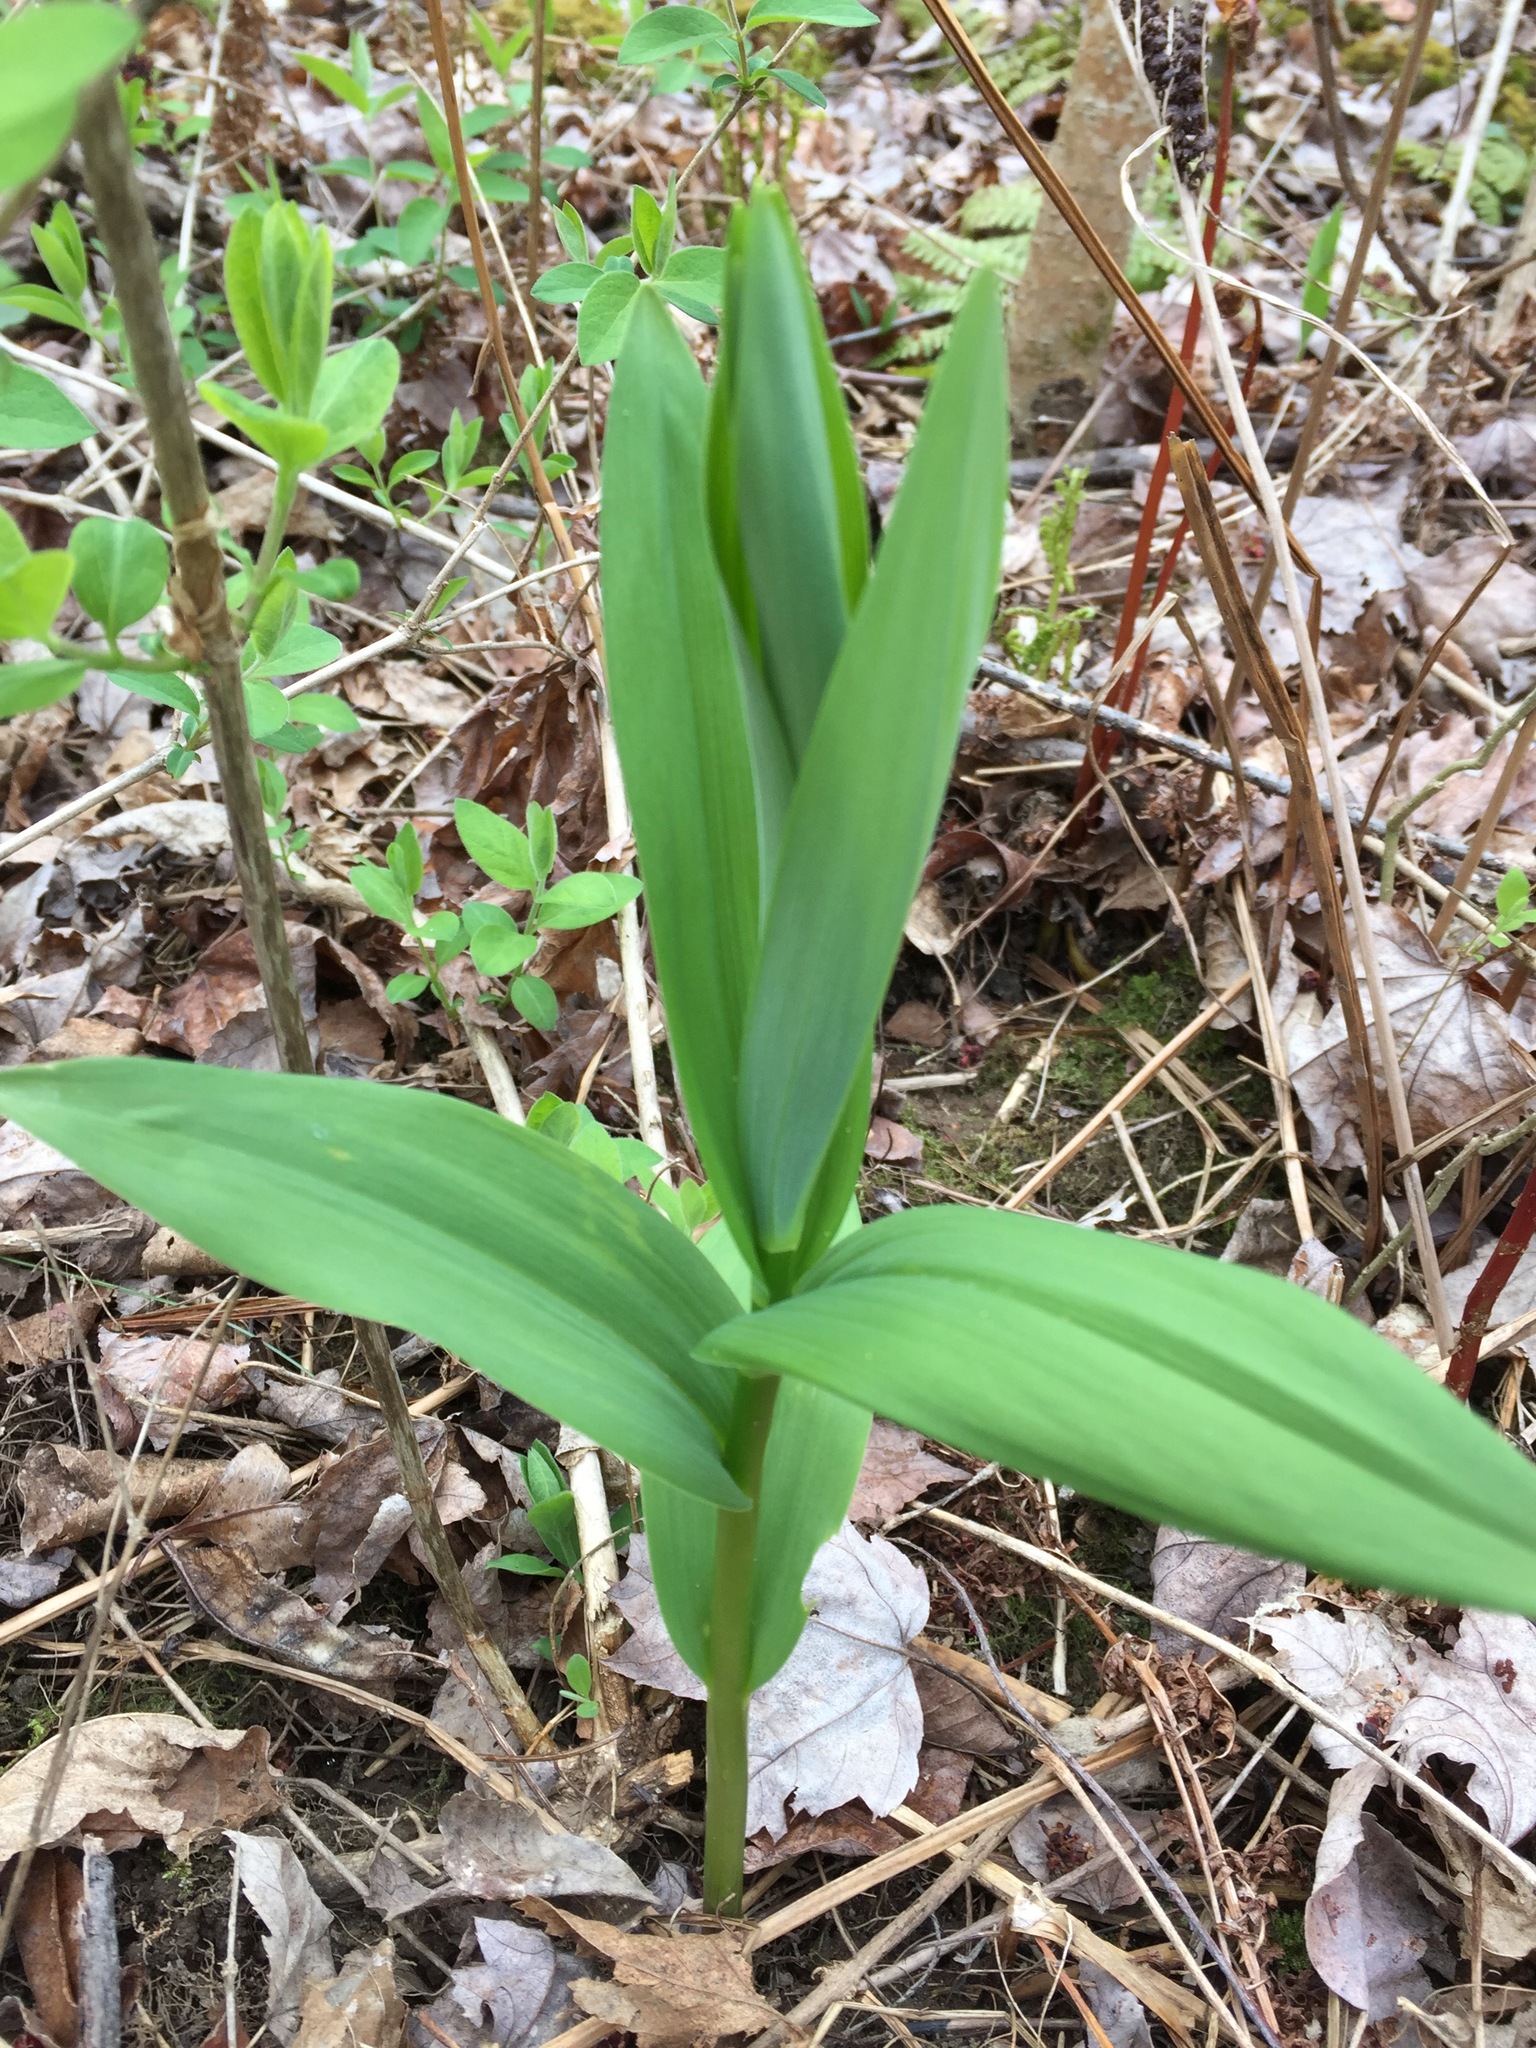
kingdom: Plantae
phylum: Tracheophyta
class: Liliopsida
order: Asparagales
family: Asparagaceae
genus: Maianthemum
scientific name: Maianthemum stellatum
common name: Little false solomon's seal
